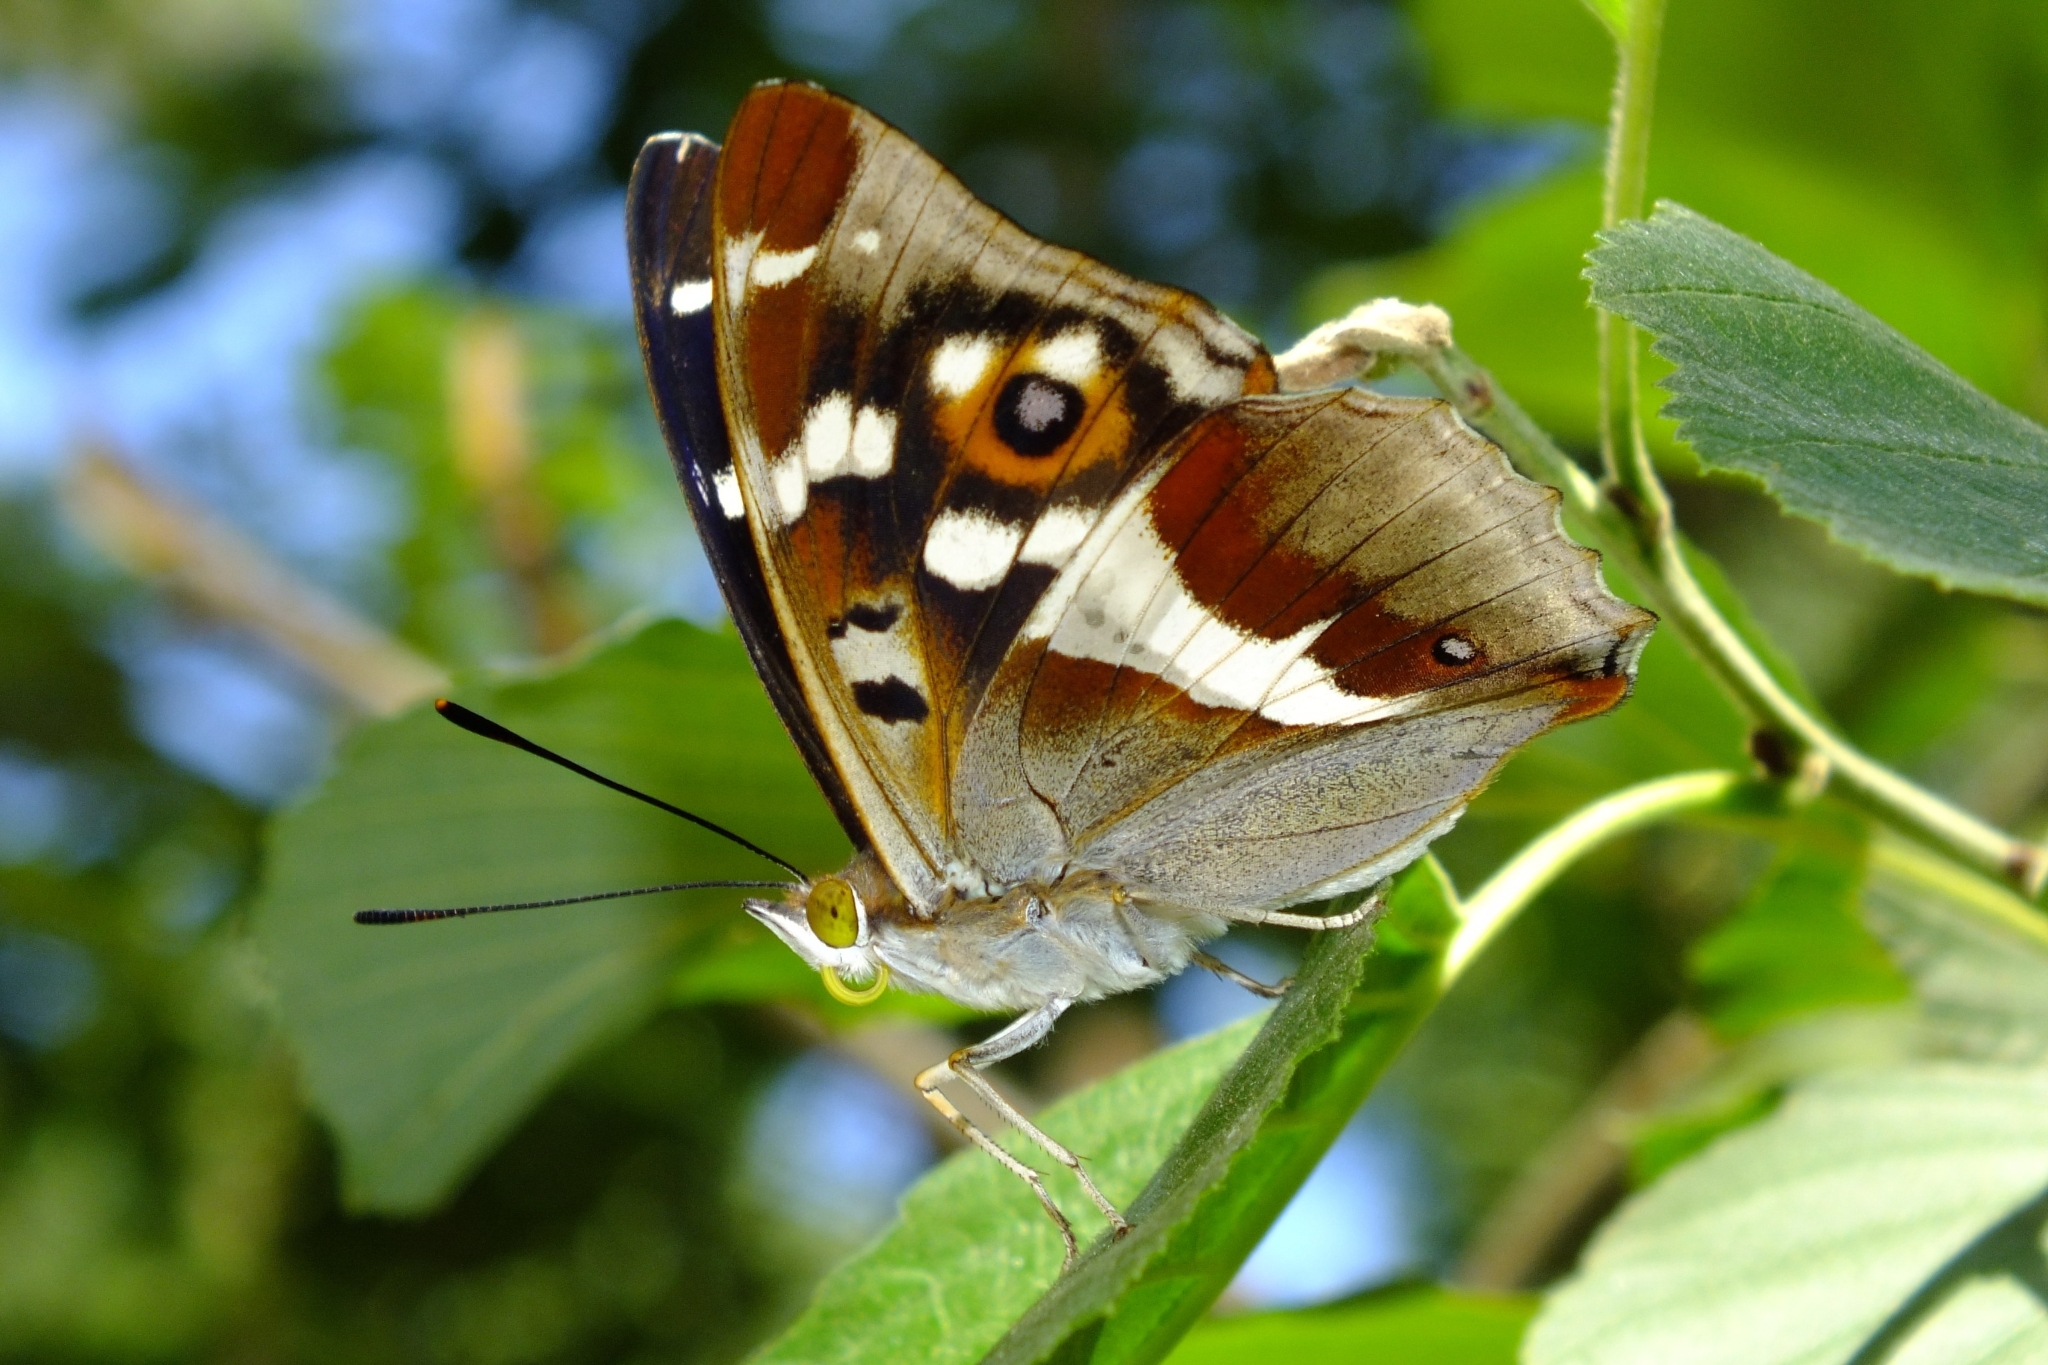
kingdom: Animalia
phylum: Arthropoda
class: Insecta
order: Lepidoptera
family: Nymphalidae
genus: Apatura
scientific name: Apatura iris
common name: Purple emperor
